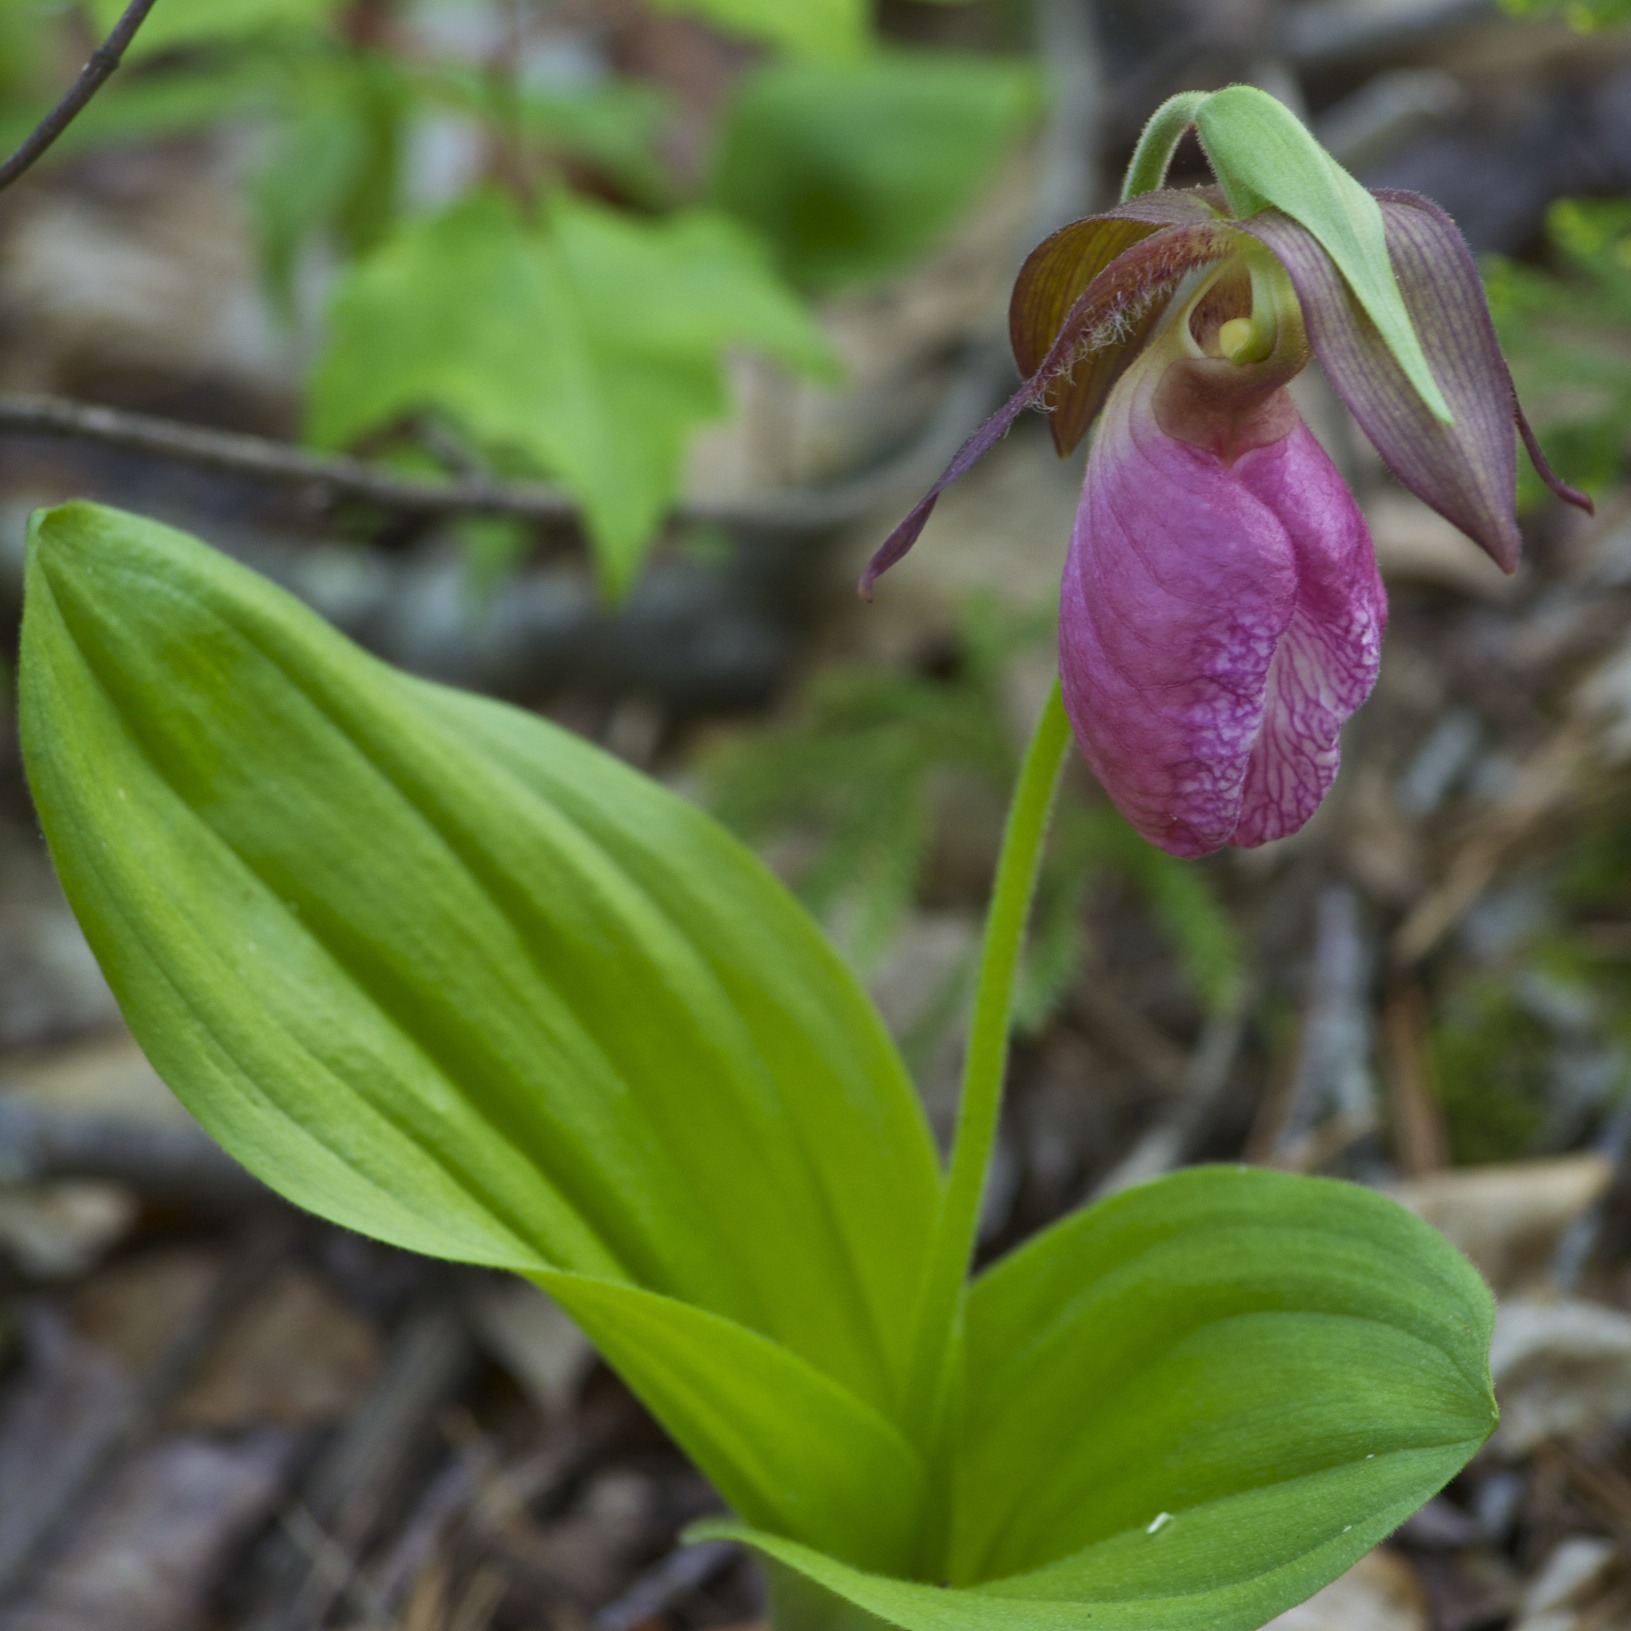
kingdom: Plantae
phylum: Tracheophyta
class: Liliopsida
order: Asparagales
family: Orchidaceae
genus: Cypripedium
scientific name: Cypripedium acaule
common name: Pink lady's-slipper
